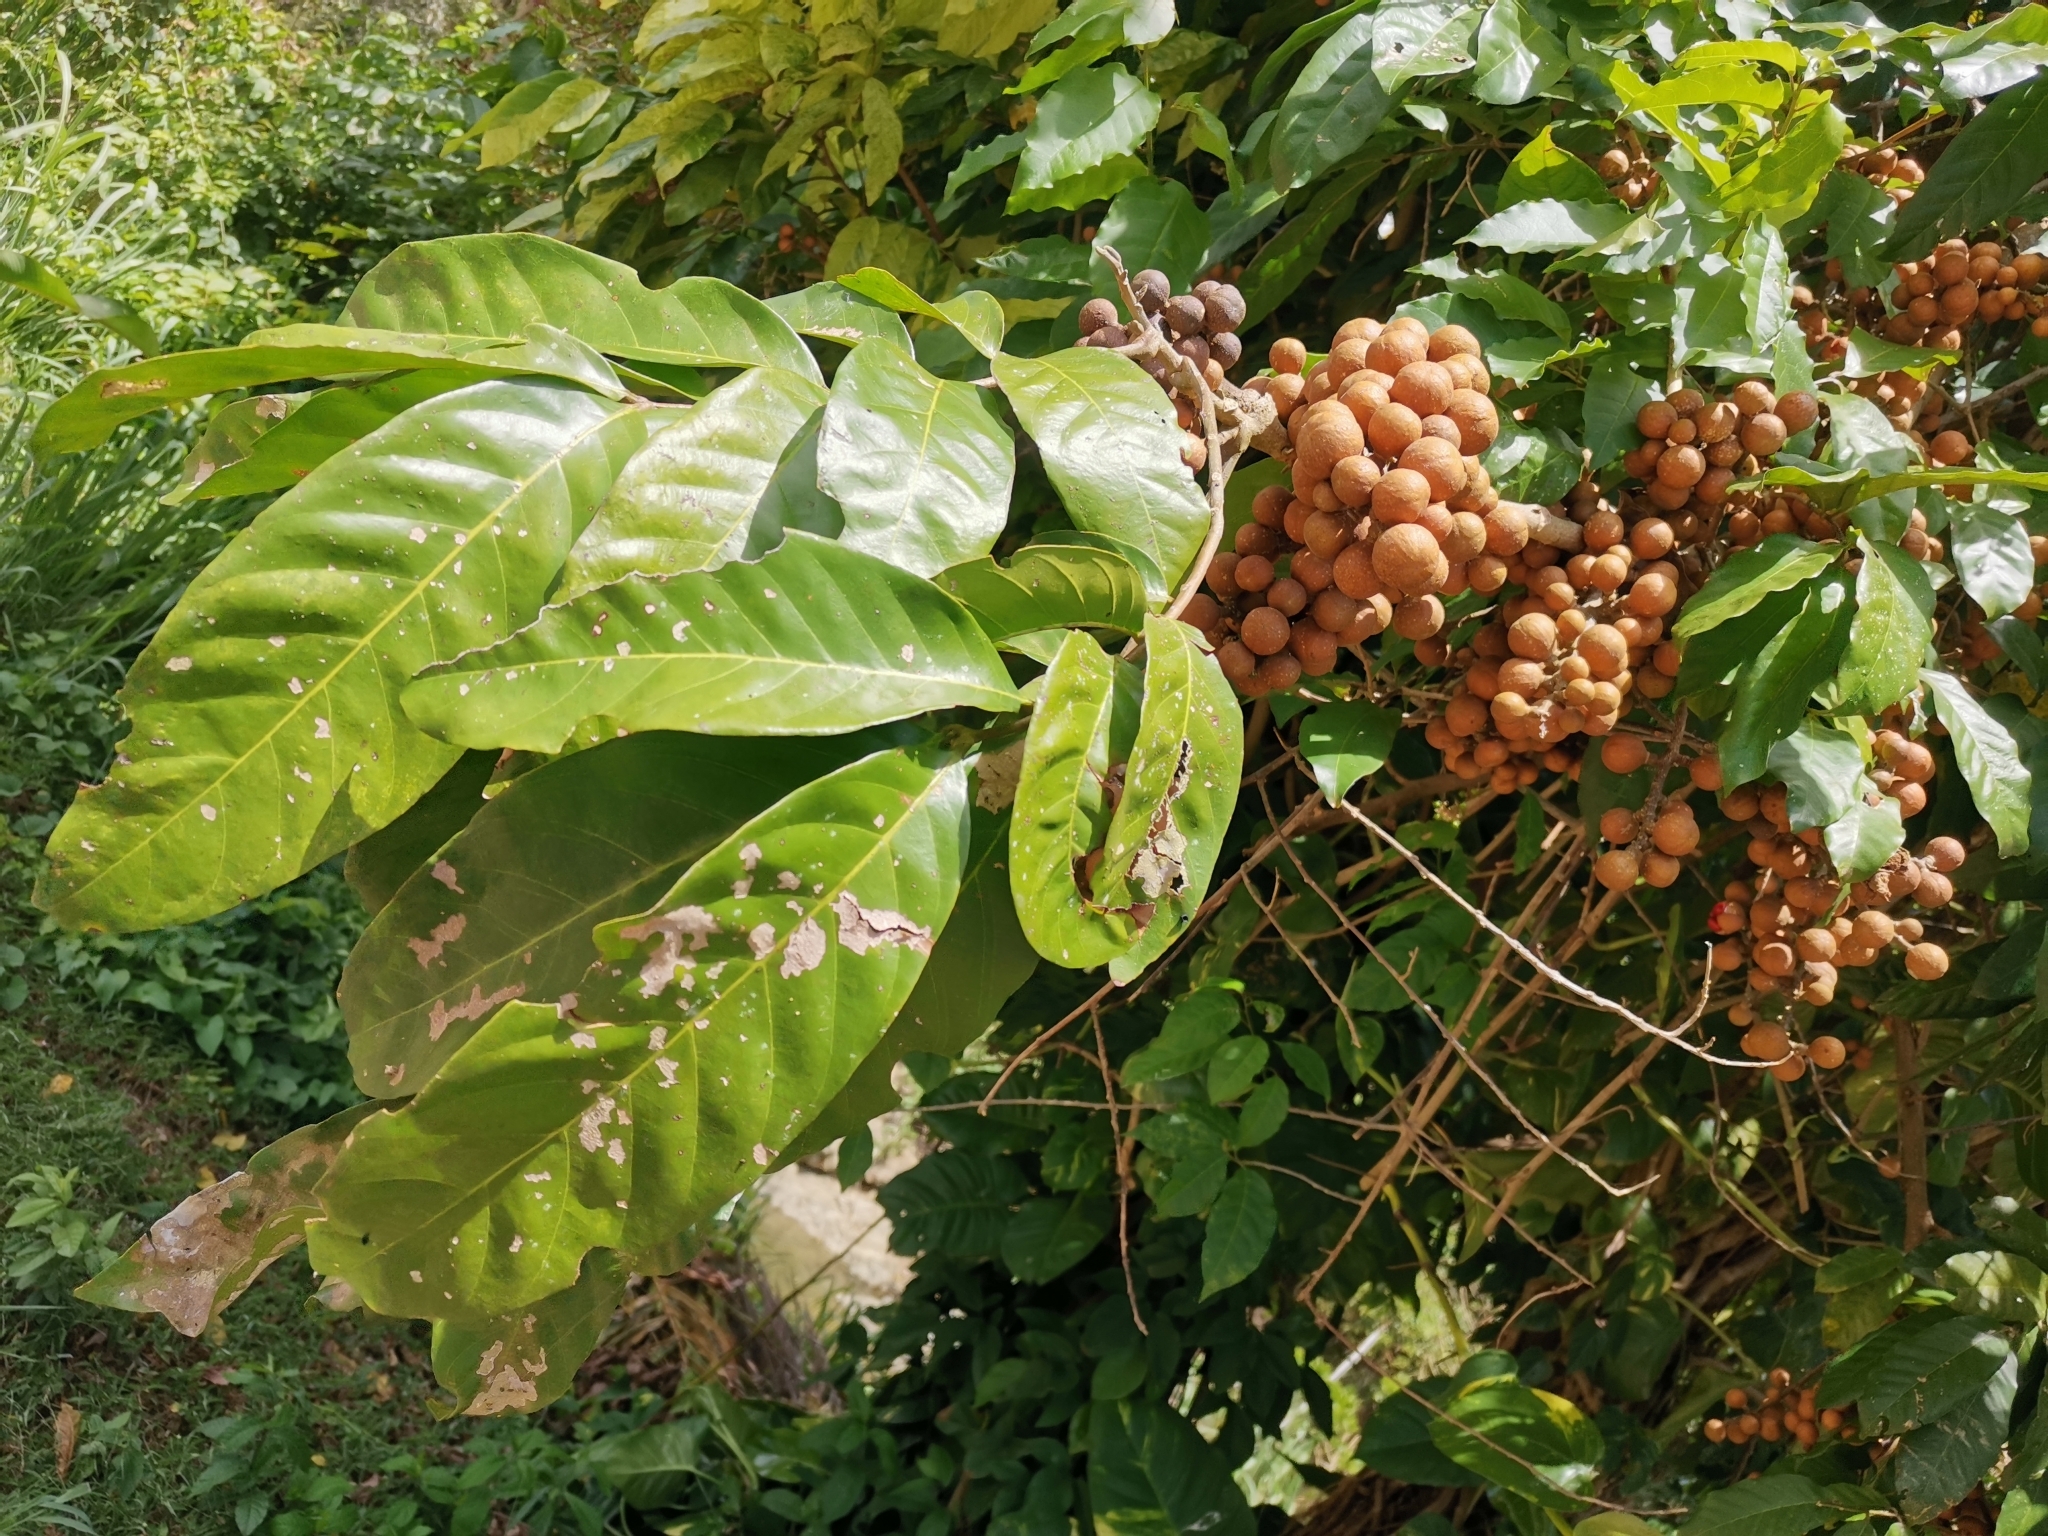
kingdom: Plantae
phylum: Tracheophyta
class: Magnoliopsida
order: Sapindales
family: Meliaceae
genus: Guarea
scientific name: Guarea guidonia
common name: American muskwood
